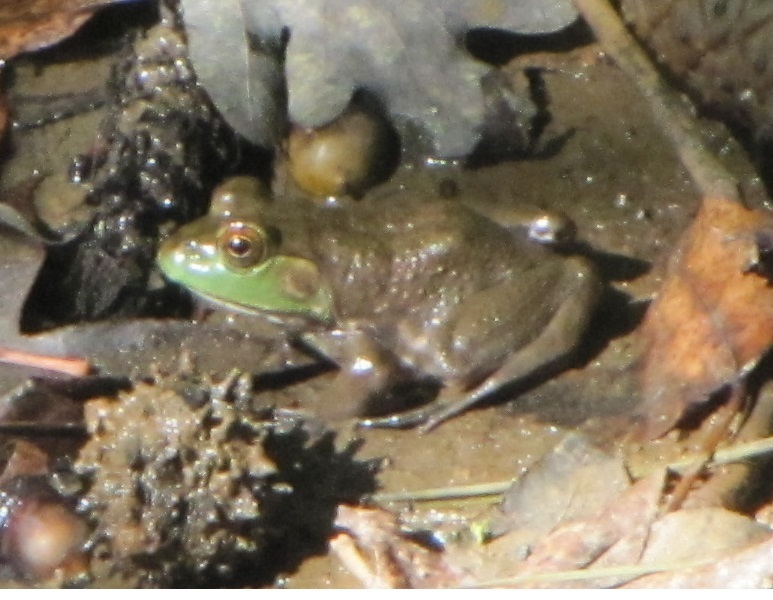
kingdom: Animalia
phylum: Chordata
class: Amphibia
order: Anura
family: Ranidae
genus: Lithobates
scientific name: Lithobates catesbeianus
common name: American bullfrog
